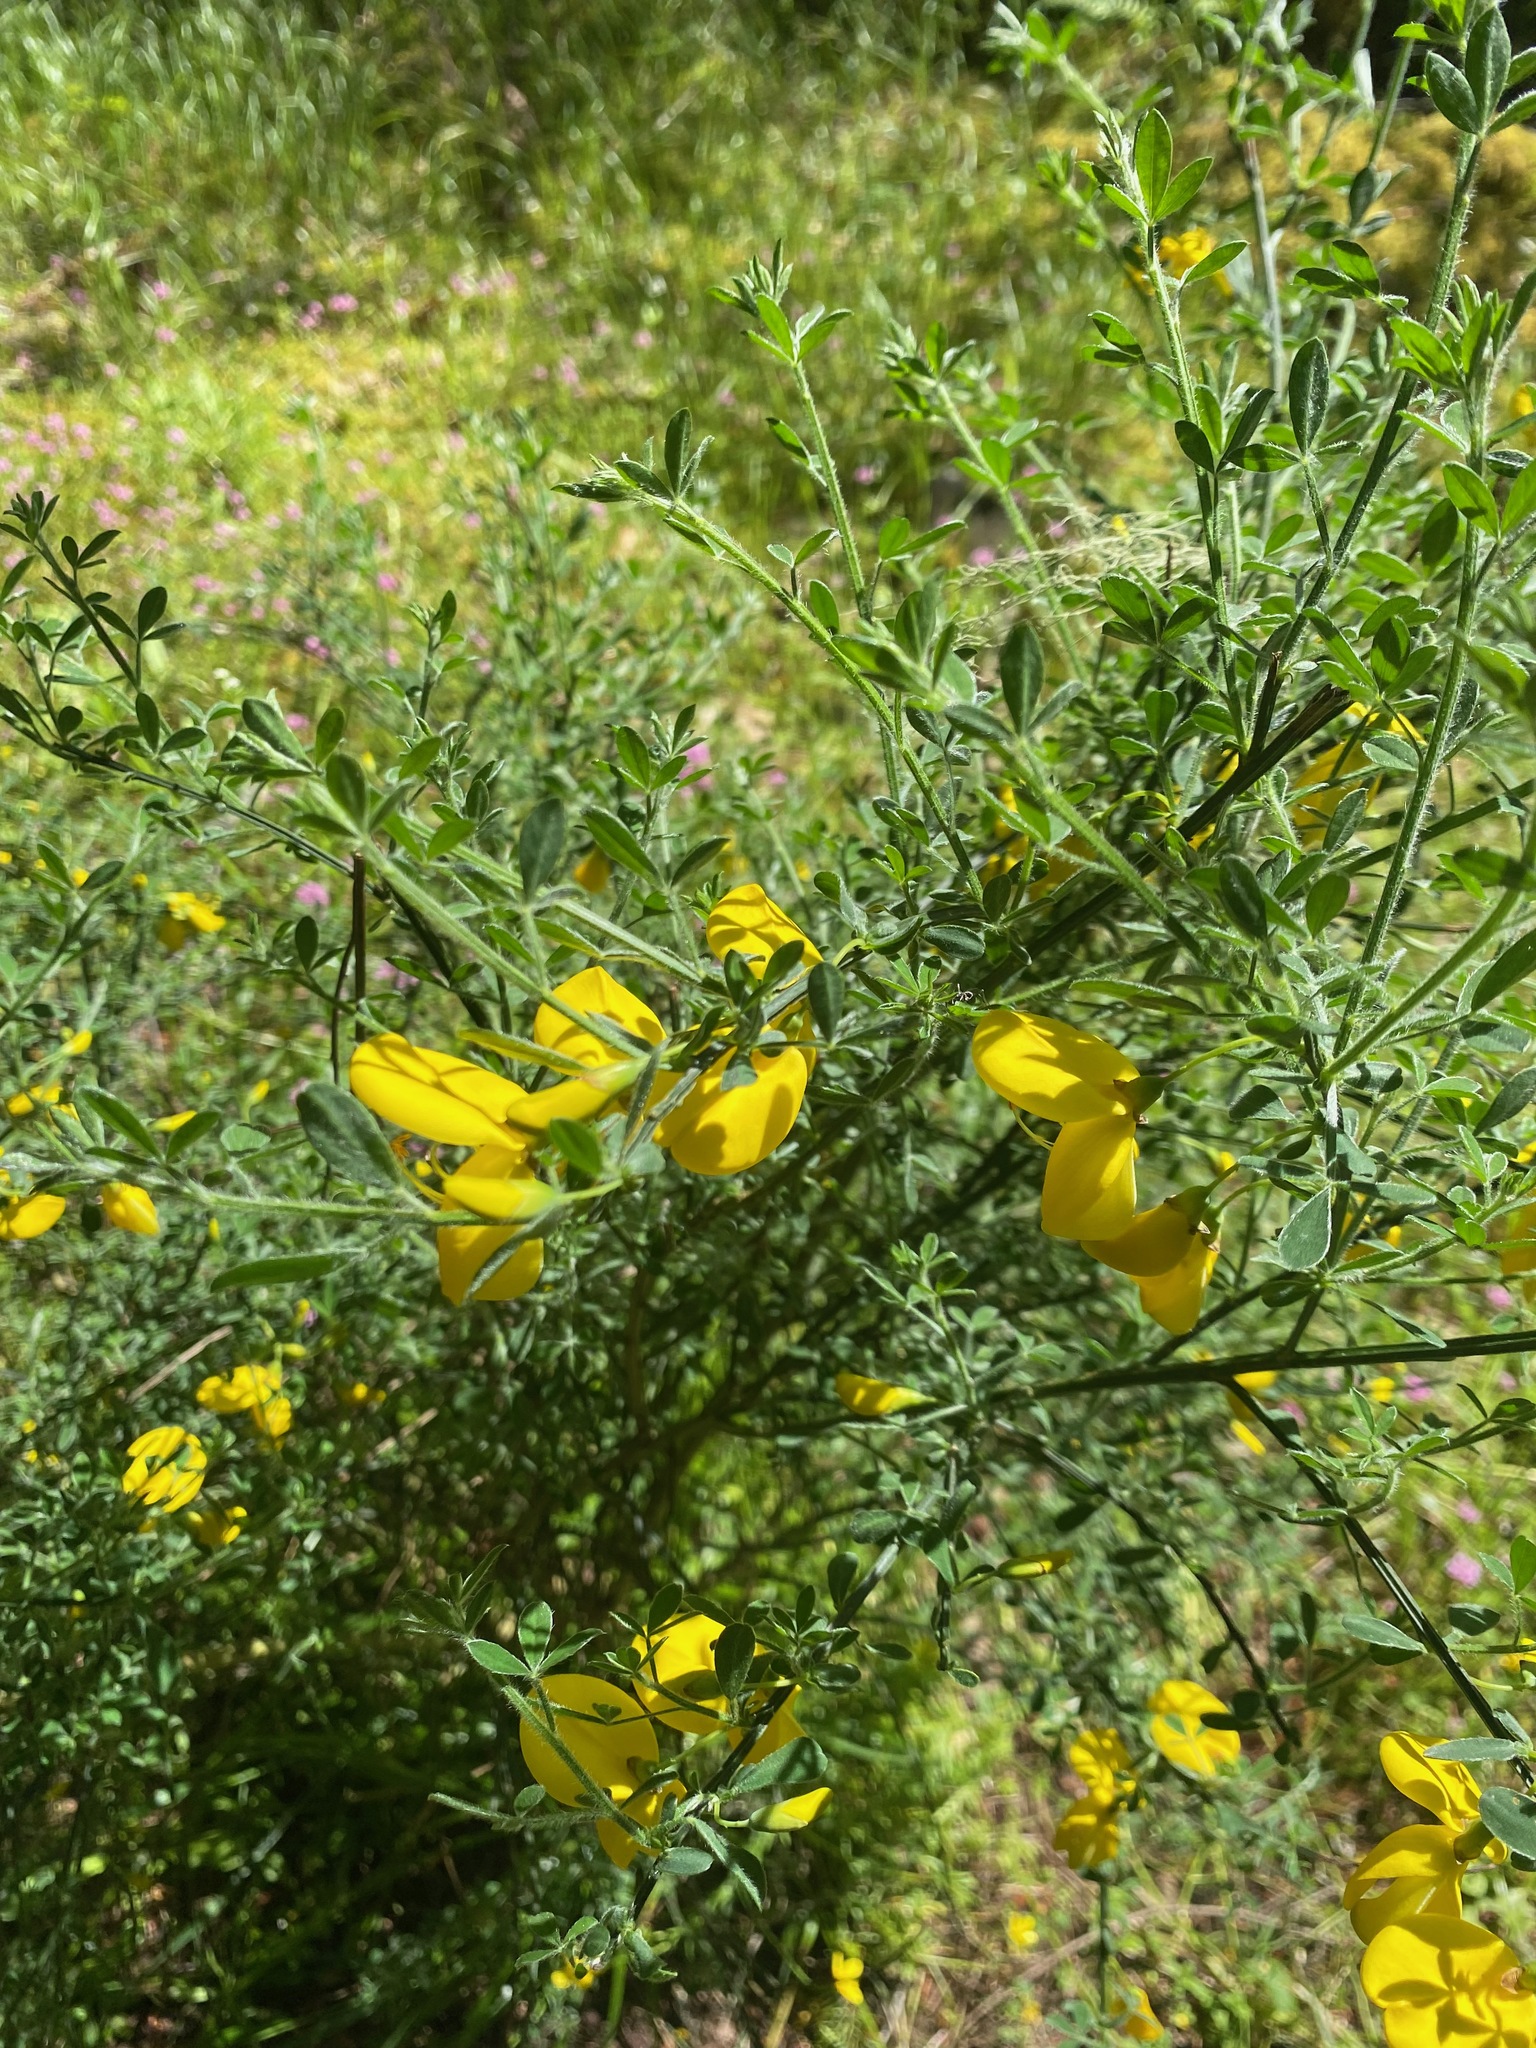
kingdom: Plantae
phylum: Tracheophyta
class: Magnoliopsida
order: Fabales
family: Fabaceae
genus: Cytisus
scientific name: Cytisus scoparius
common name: Scotch broom
